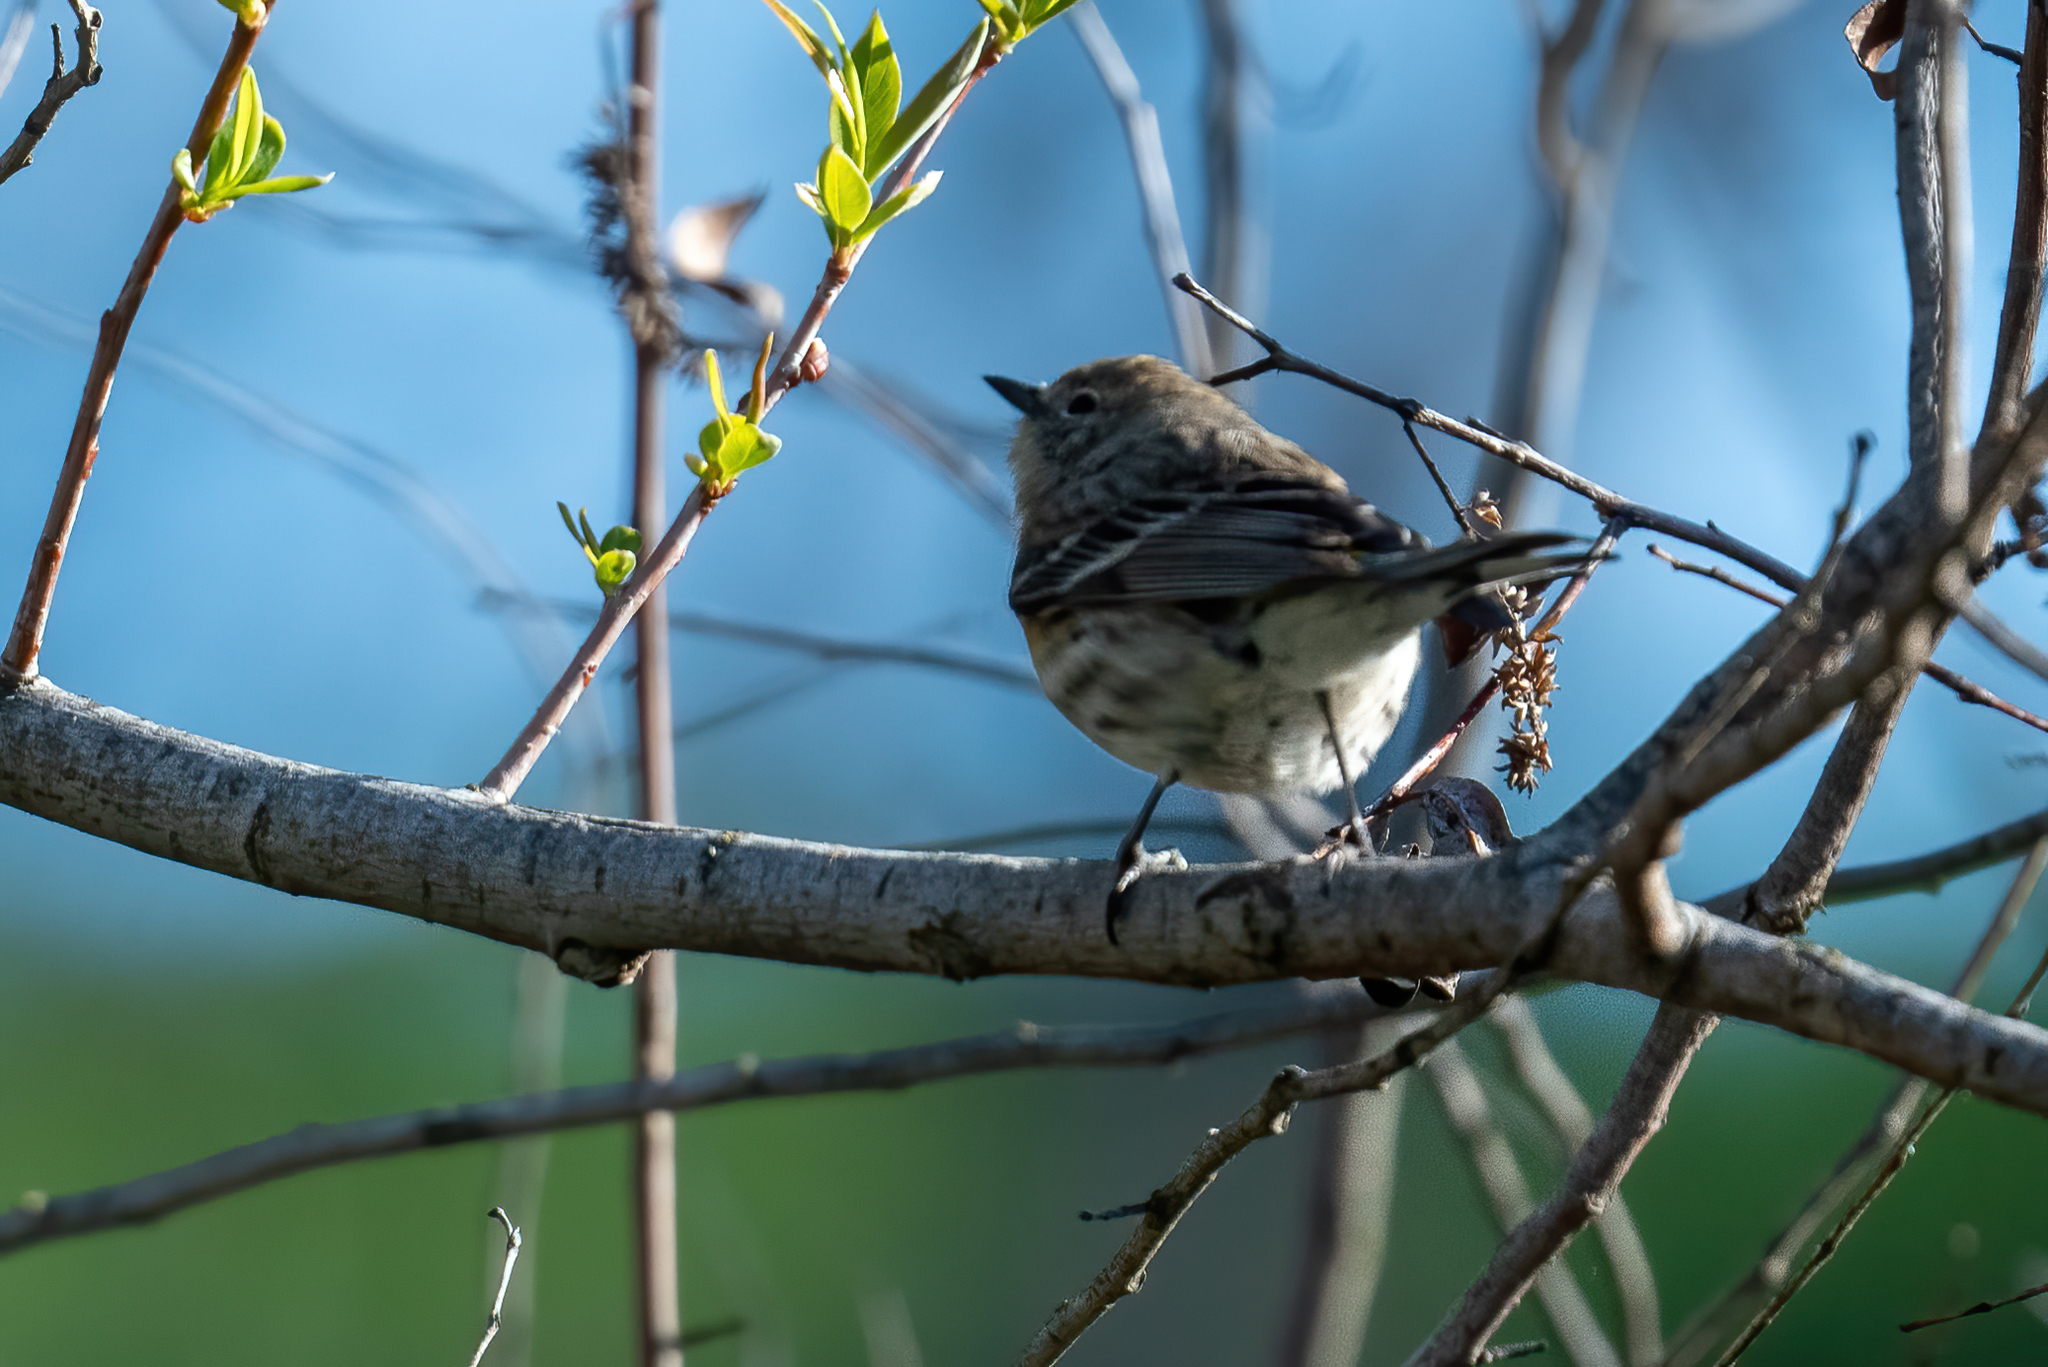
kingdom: Animalia
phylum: Chordata
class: Aves
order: Passeriformes
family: Parulidae
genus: Setophaga
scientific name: Setophaga coronata
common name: Myrtle warbler
